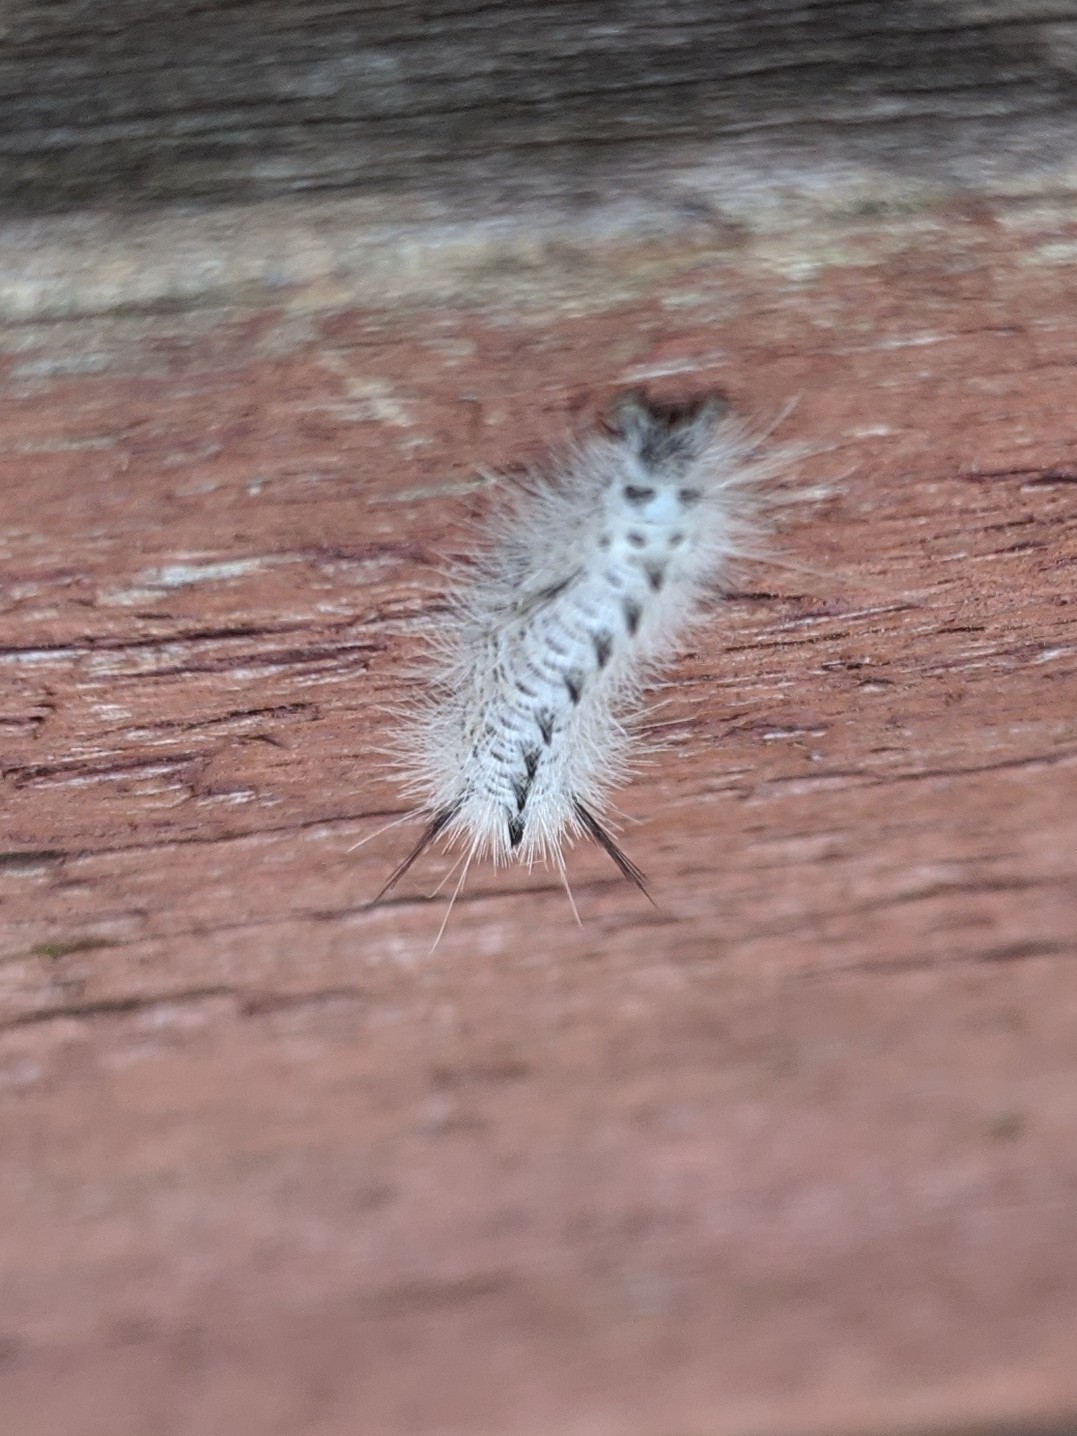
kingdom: Animalia
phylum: Arthropoda
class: Insecta
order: Lepidoptera
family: Erebidae
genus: Lophocampa
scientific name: Lophocampa caryae
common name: Hickory tussock moth
